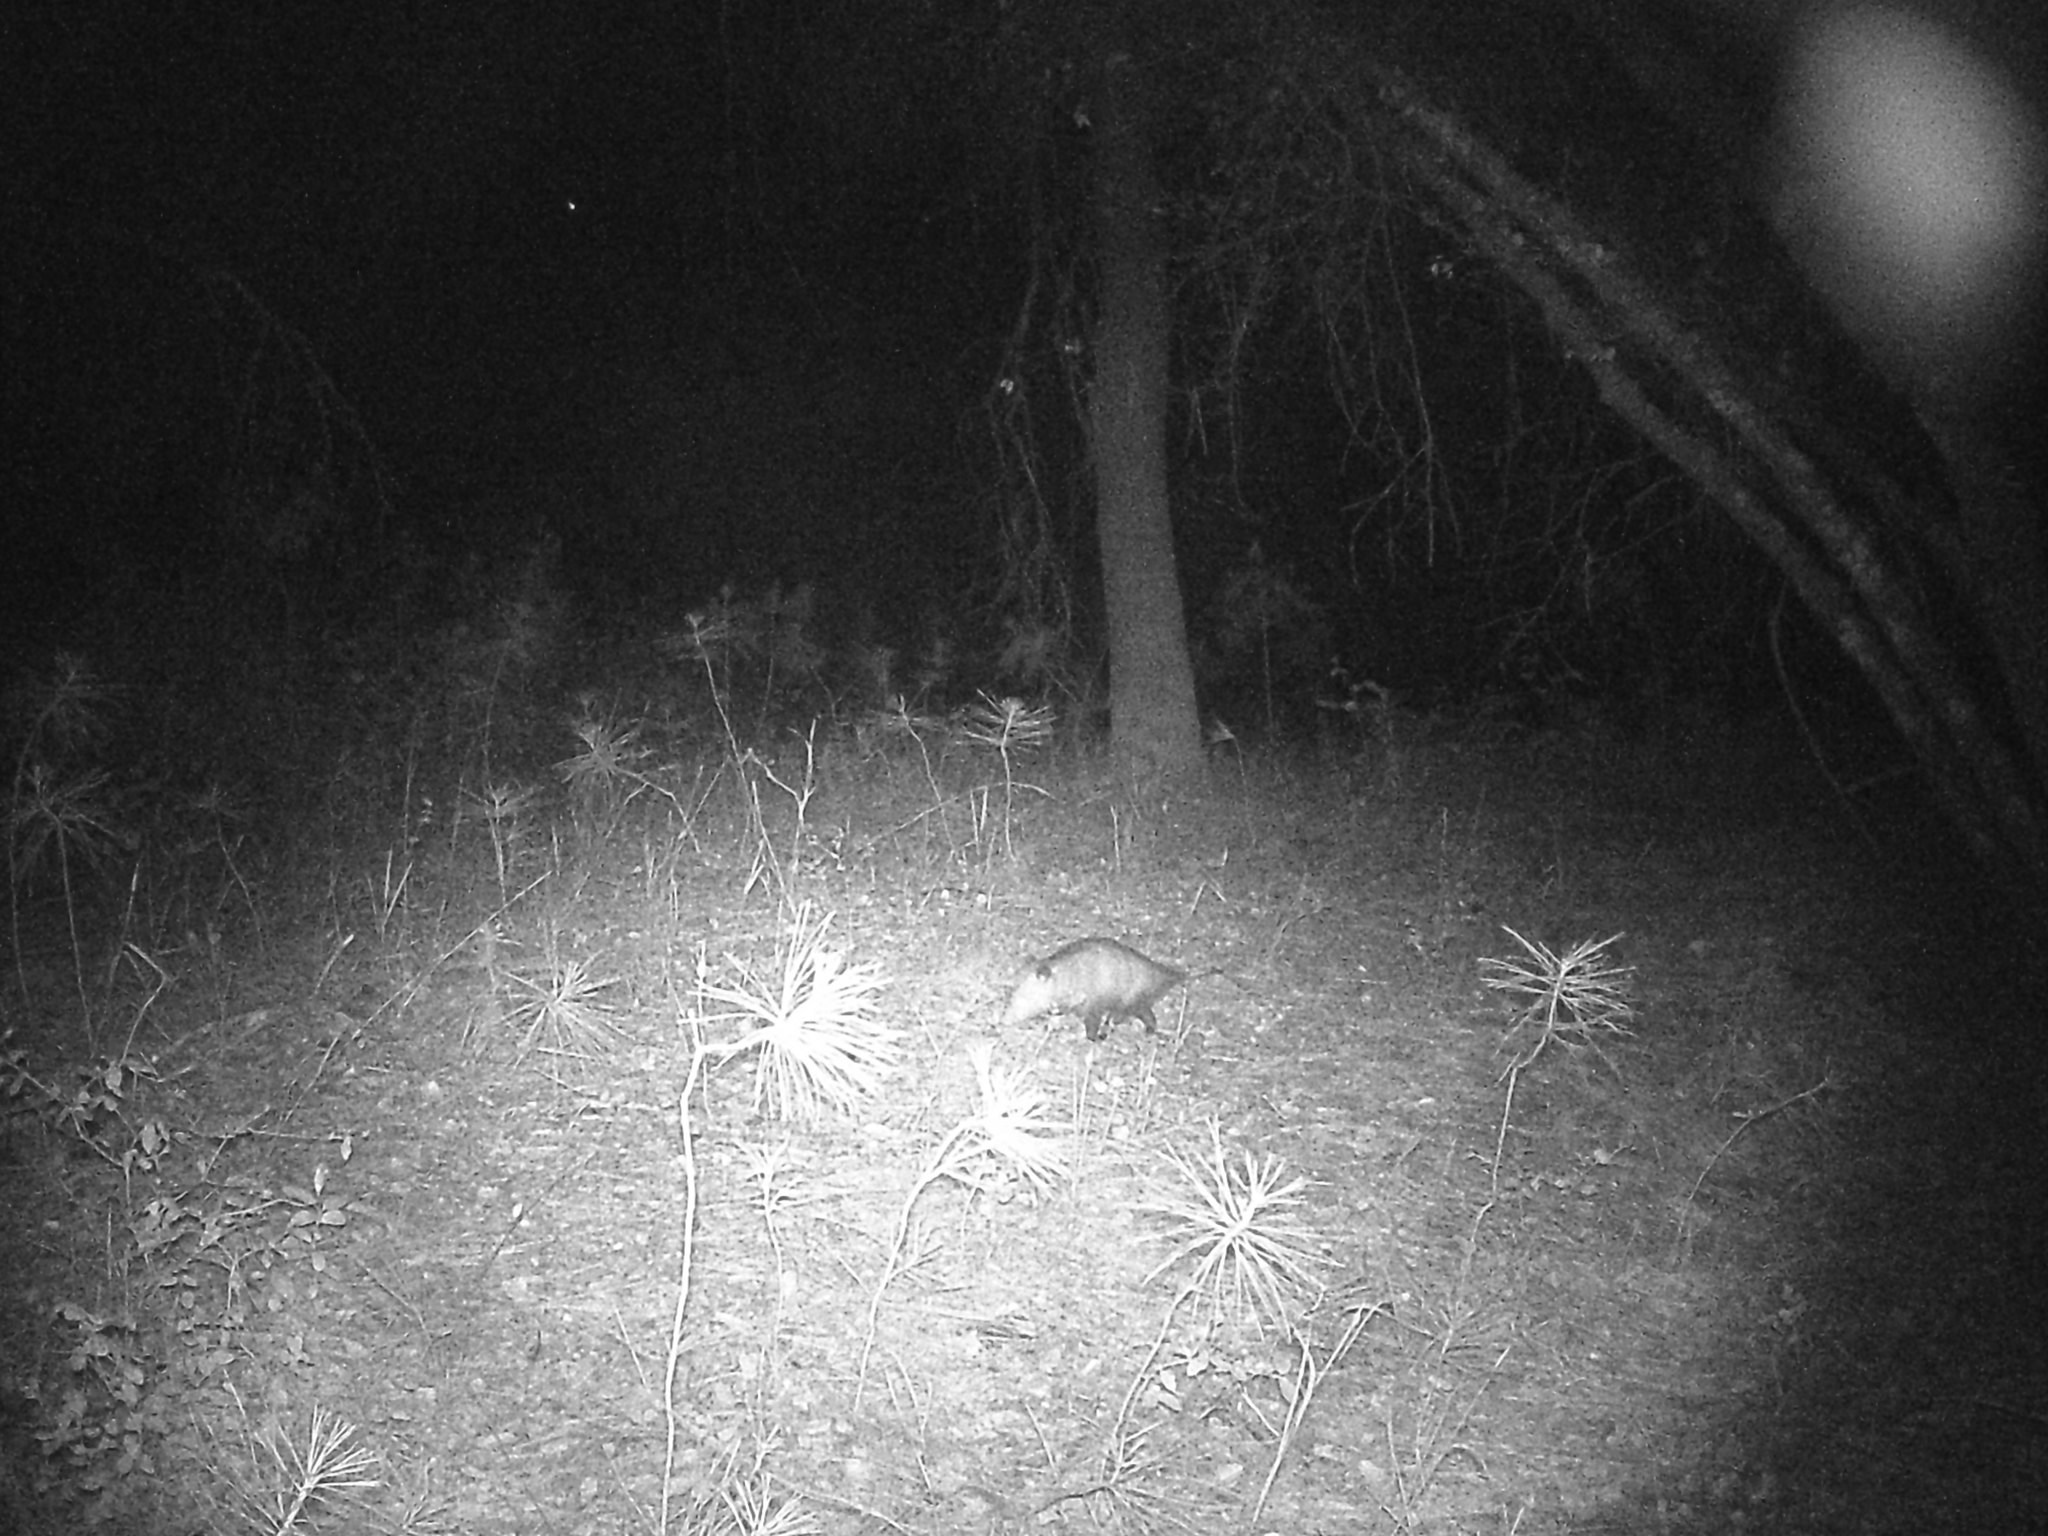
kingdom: Animalia
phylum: Chordata
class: Mammalia
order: Didelphimorphia
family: Didelphidae
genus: Didelphis
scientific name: Didelphis virginiana
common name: Virginia opossum
